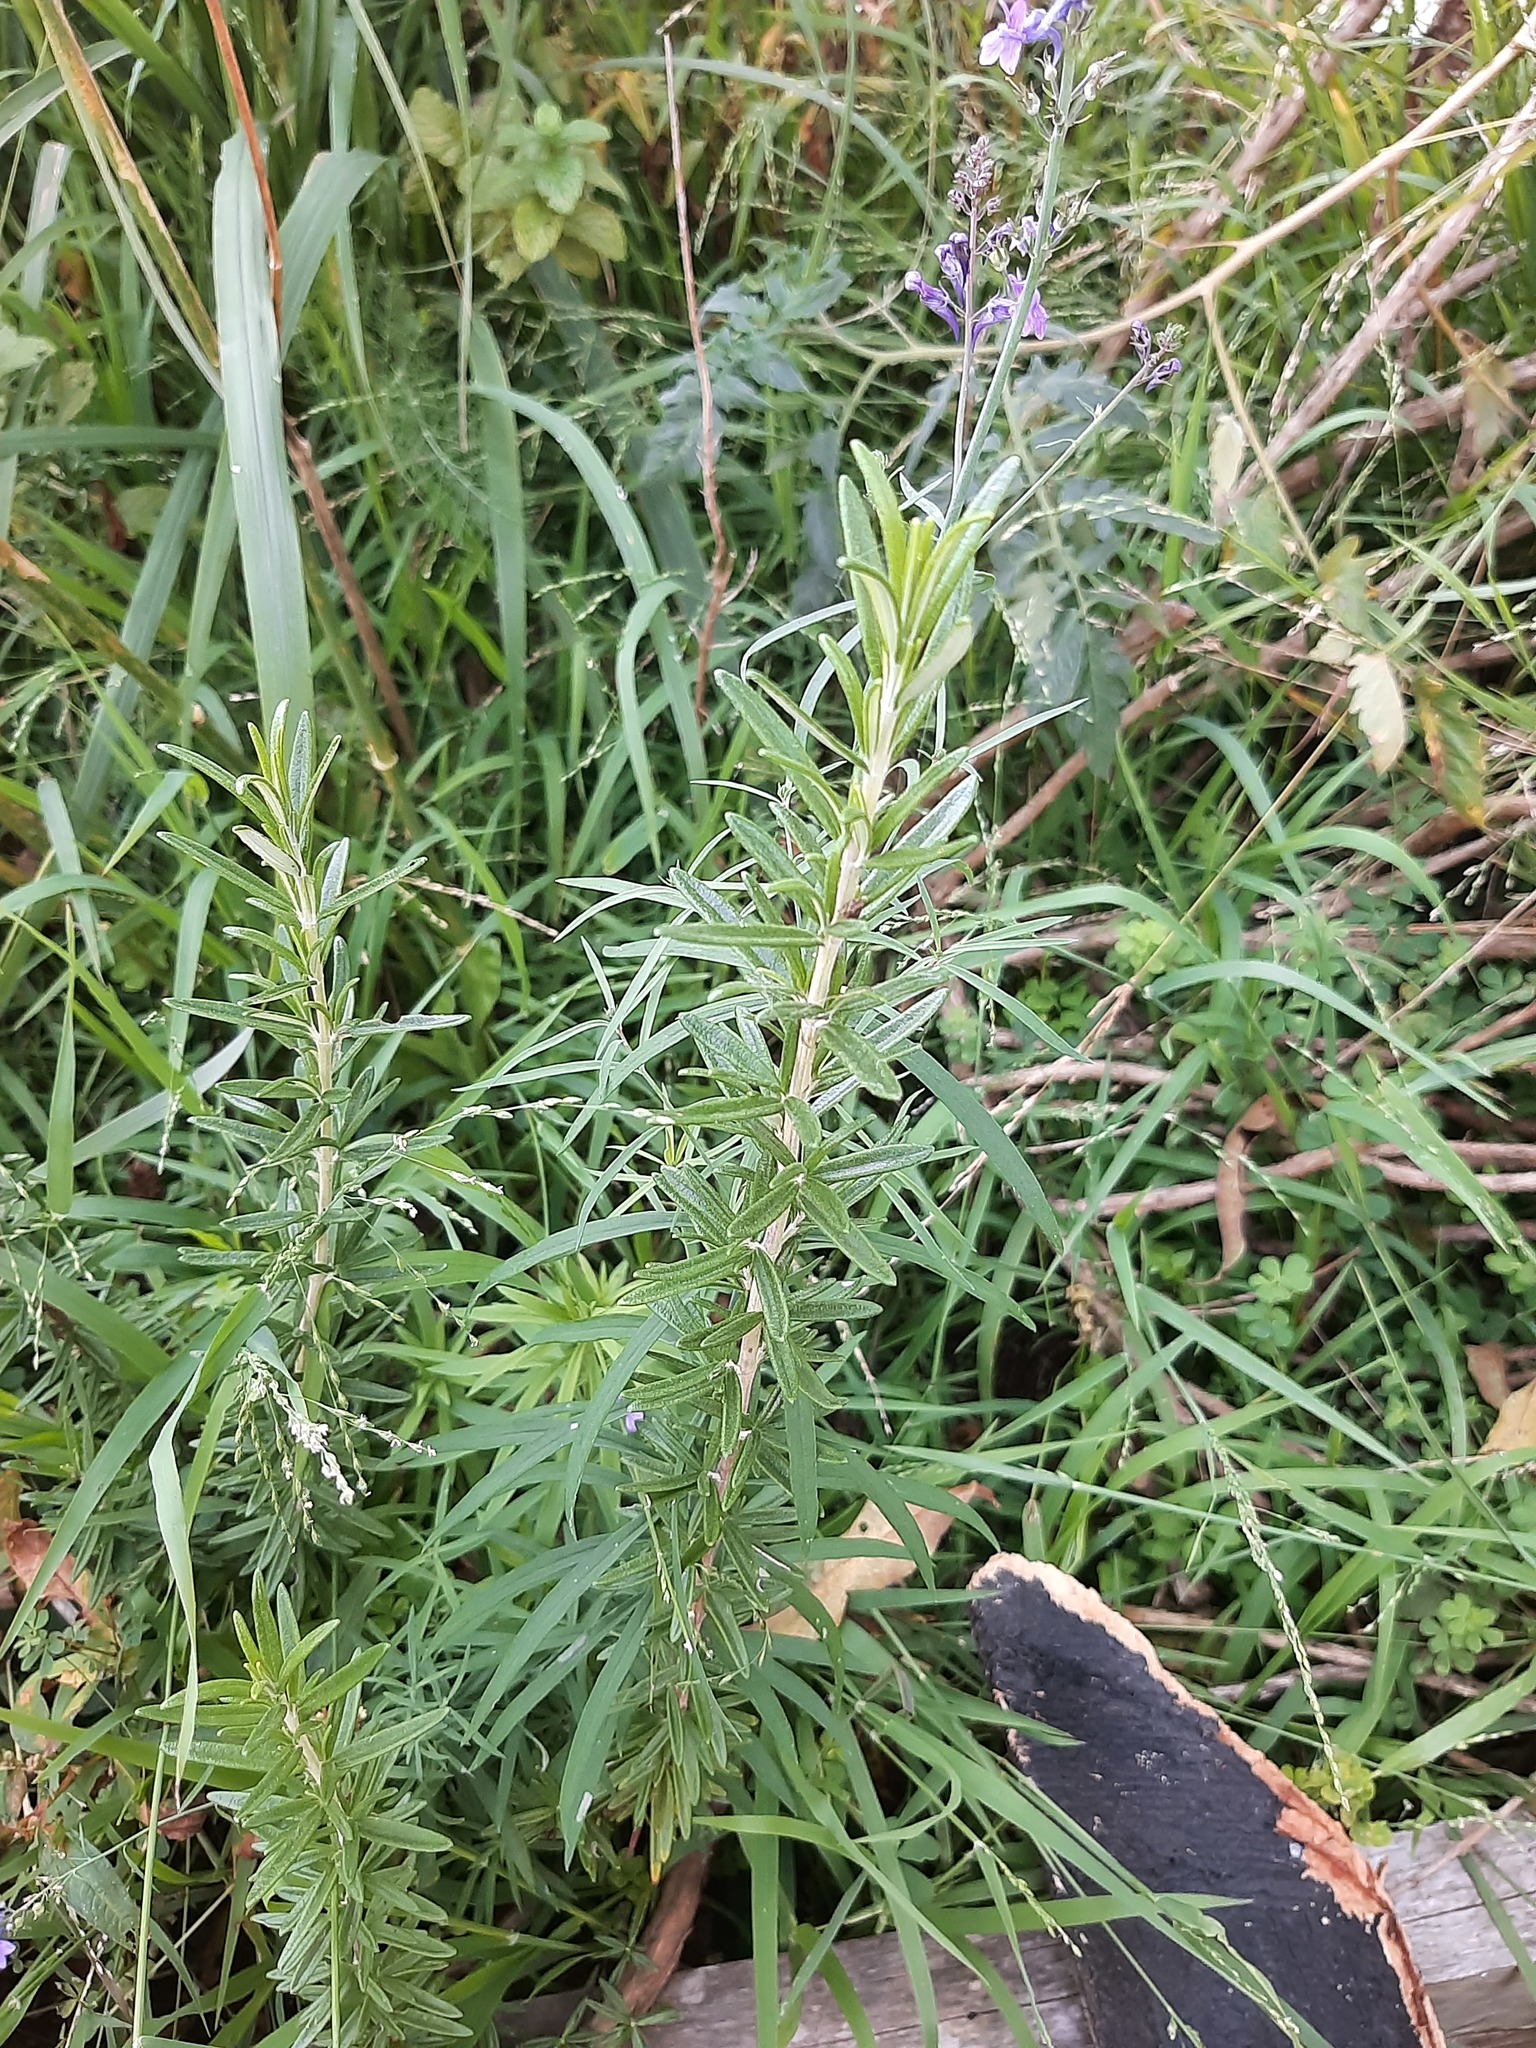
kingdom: Plantae
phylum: Tracheophyta
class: Magnoliopsida
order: Lamiales
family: Plantaginaceae
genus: Linaria
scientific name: Linaria purpurea
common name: Purple toadflax
